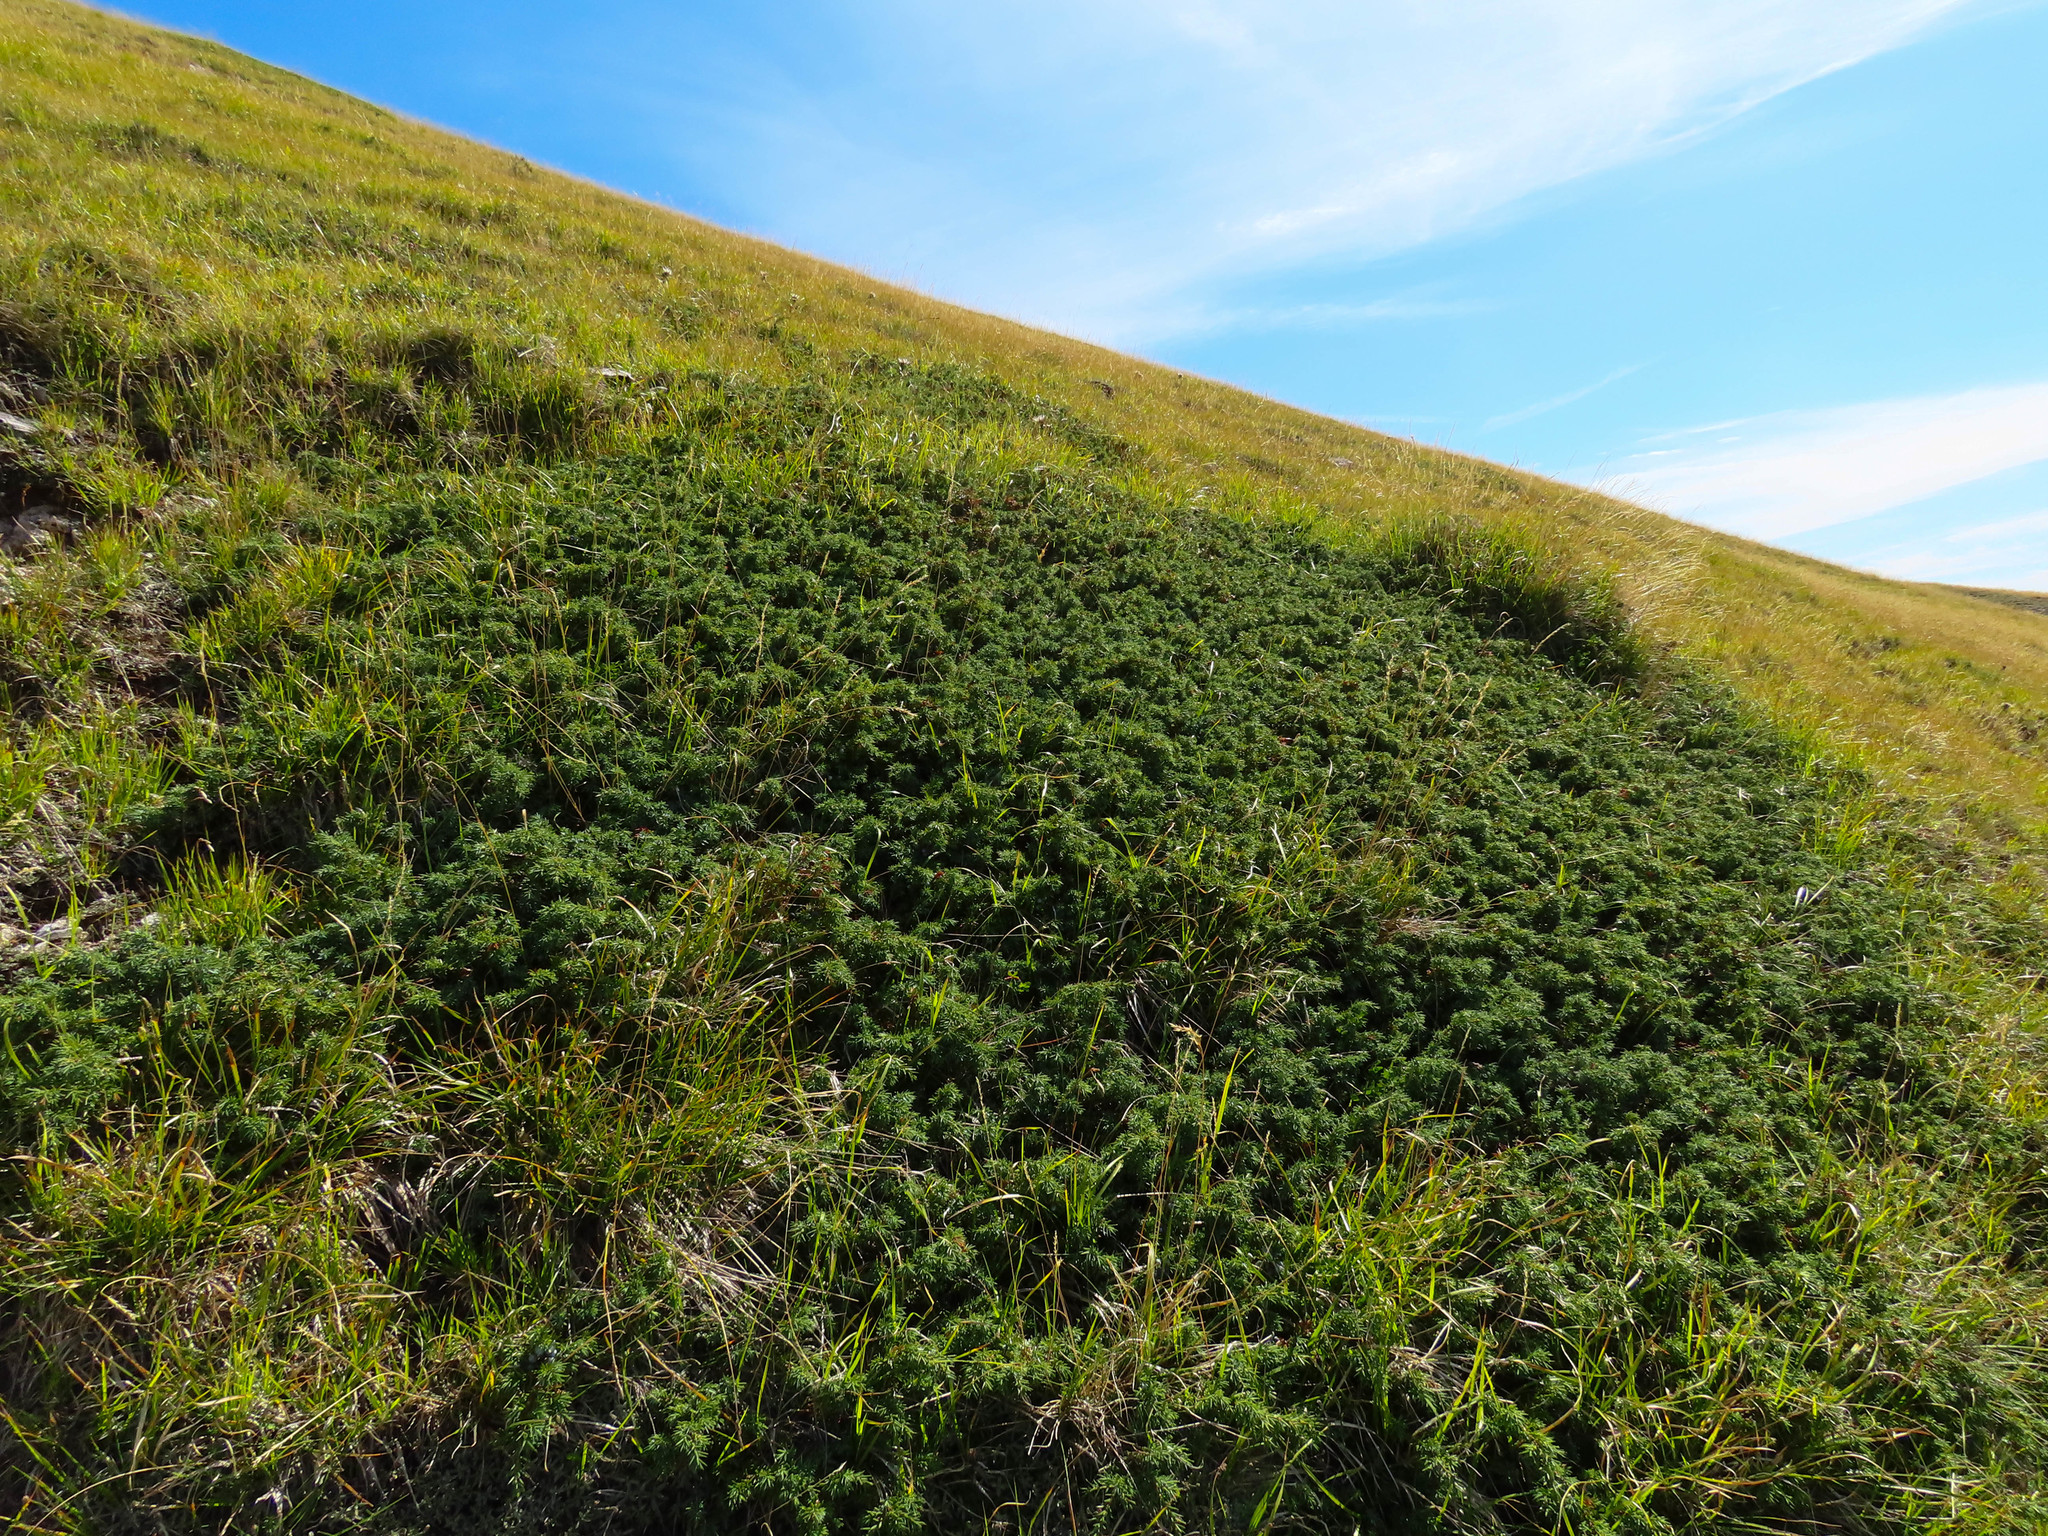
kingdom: Plantae
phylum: Tracheophyta
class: Pinopsida
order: Pinales
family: Cupressaceae
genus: Juniperus
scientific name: Juniperus communis
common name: Common juniper
